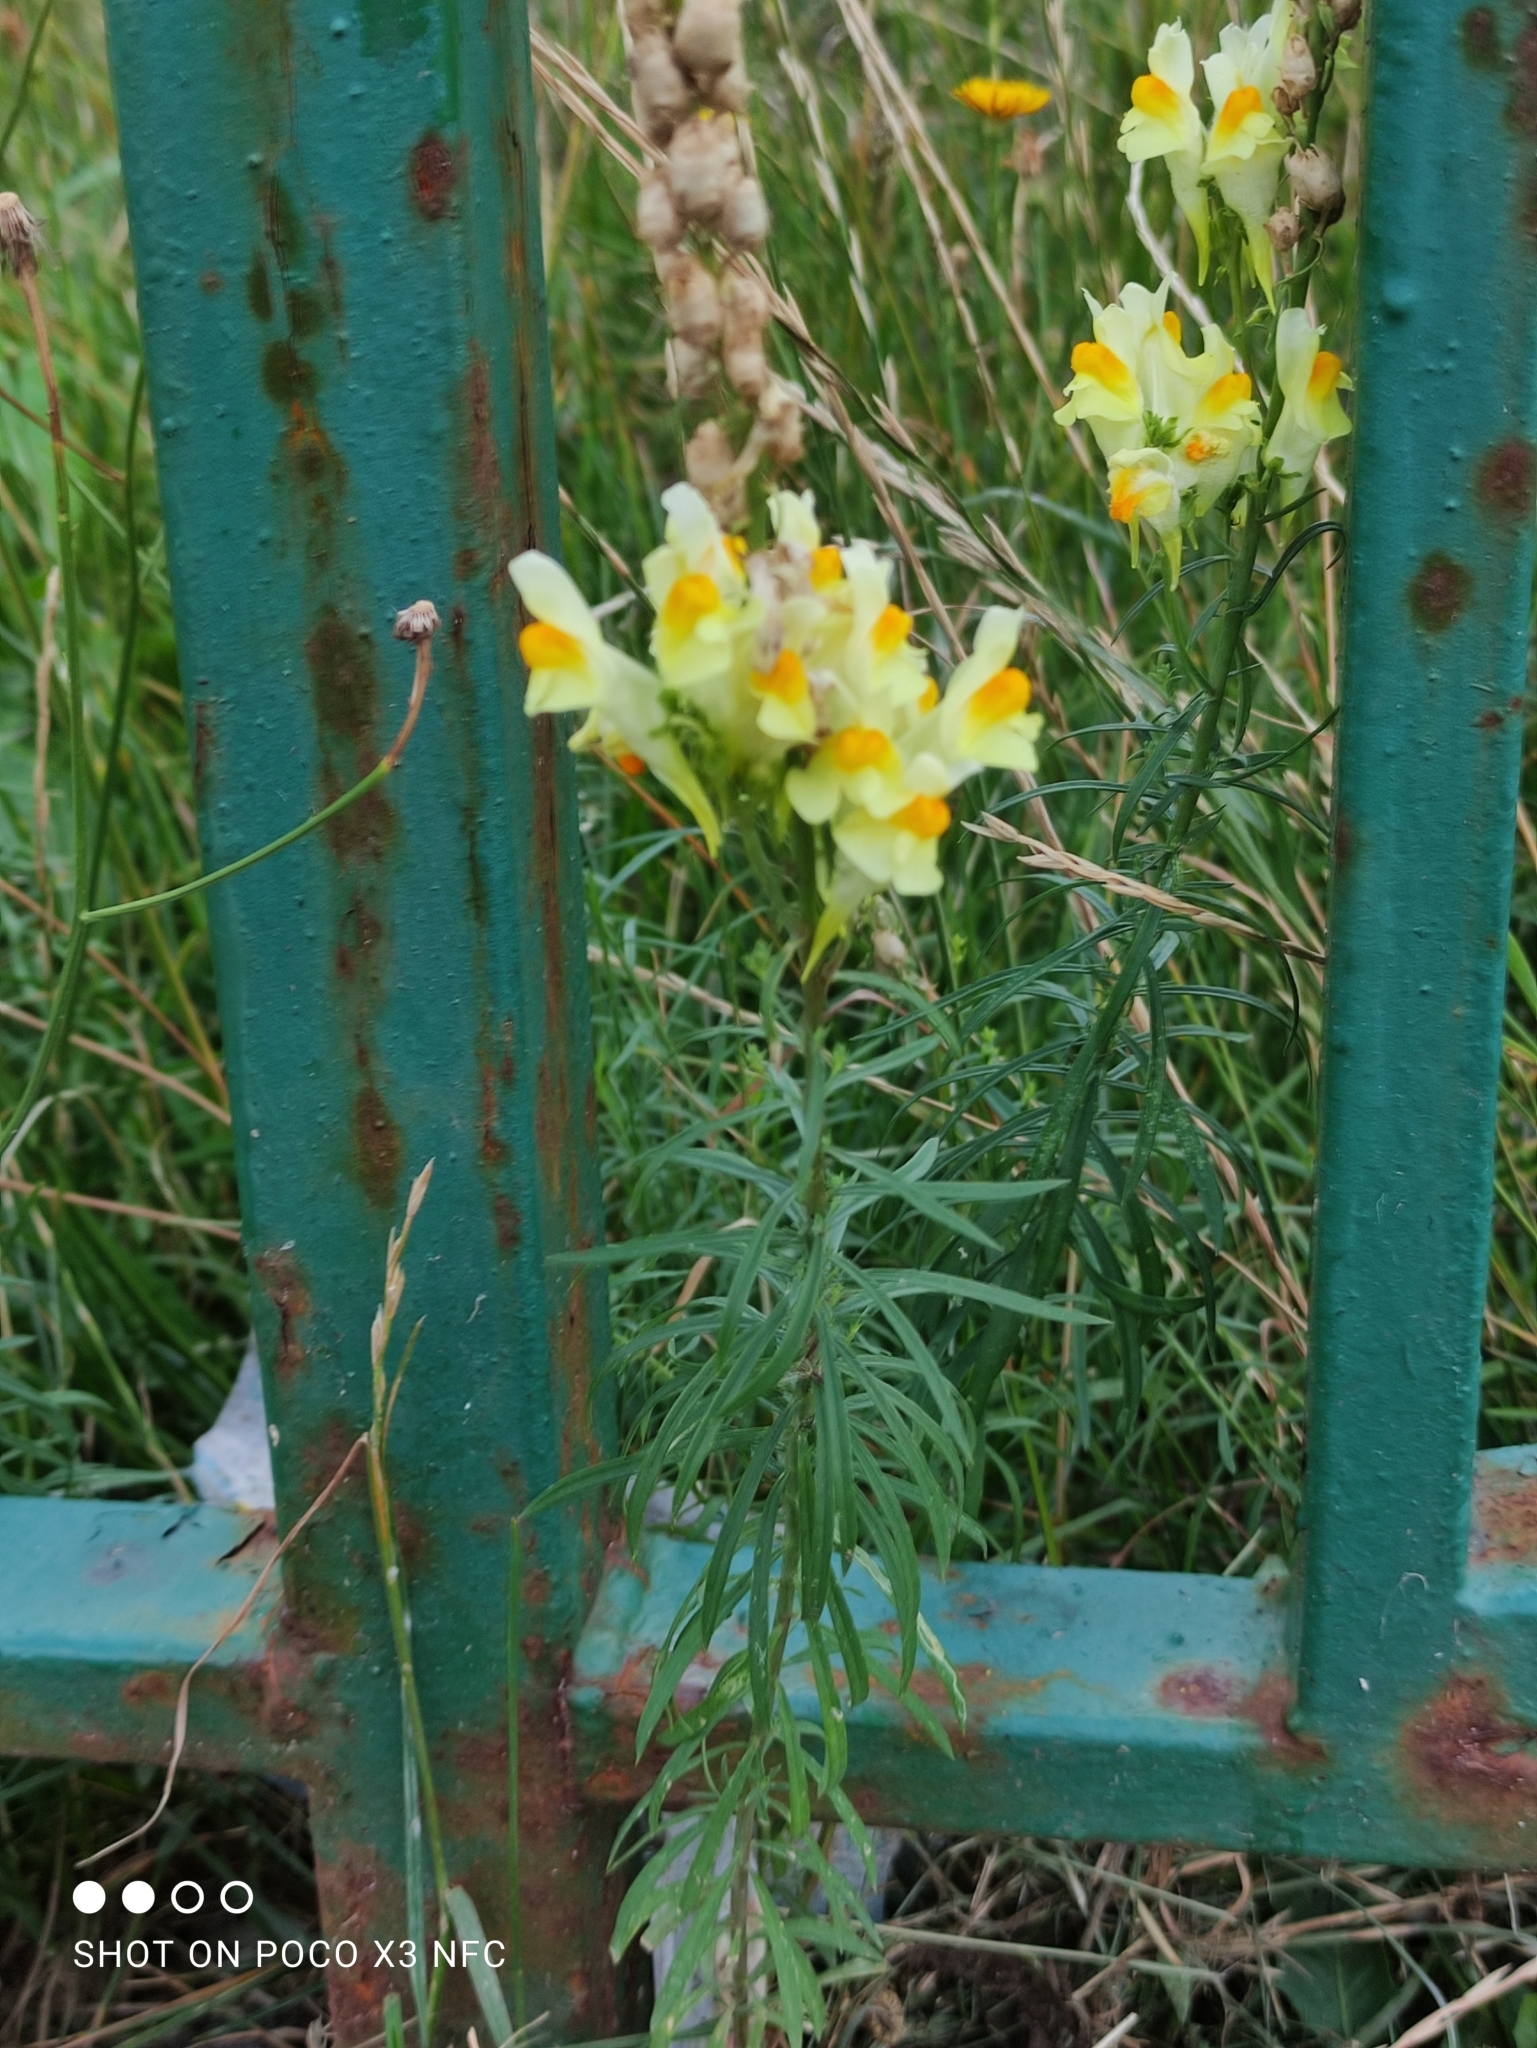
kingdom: Plantae
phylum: Tracheophyta
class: Magnoliopsida
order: Lamiales
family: Plantaginaceae
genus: Linaria
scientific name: Linaria vulgaris
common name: Butter and eggs
